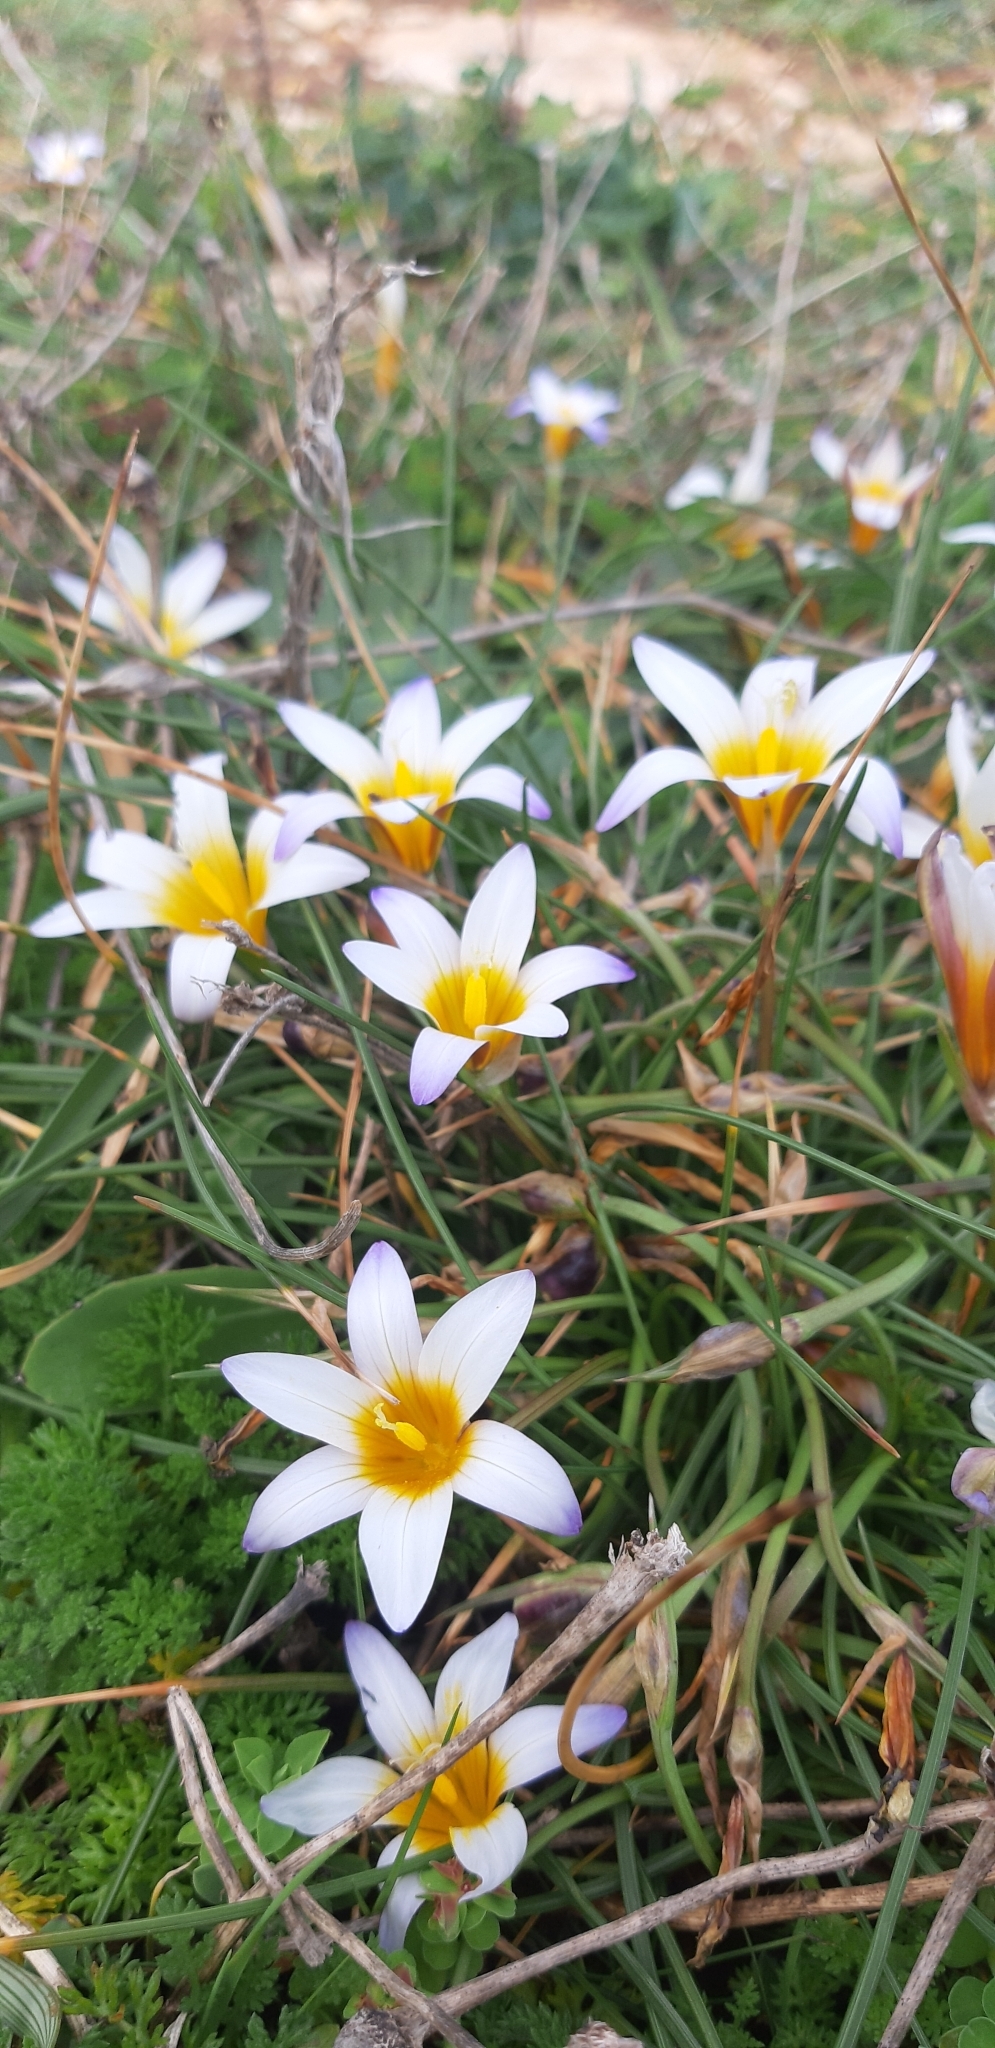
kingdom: Plantae
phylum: Tracheophyta
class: Liliopsida
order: Asparagales
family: Iridaceae
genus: Romulea
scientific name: Romulea bulbocodium
